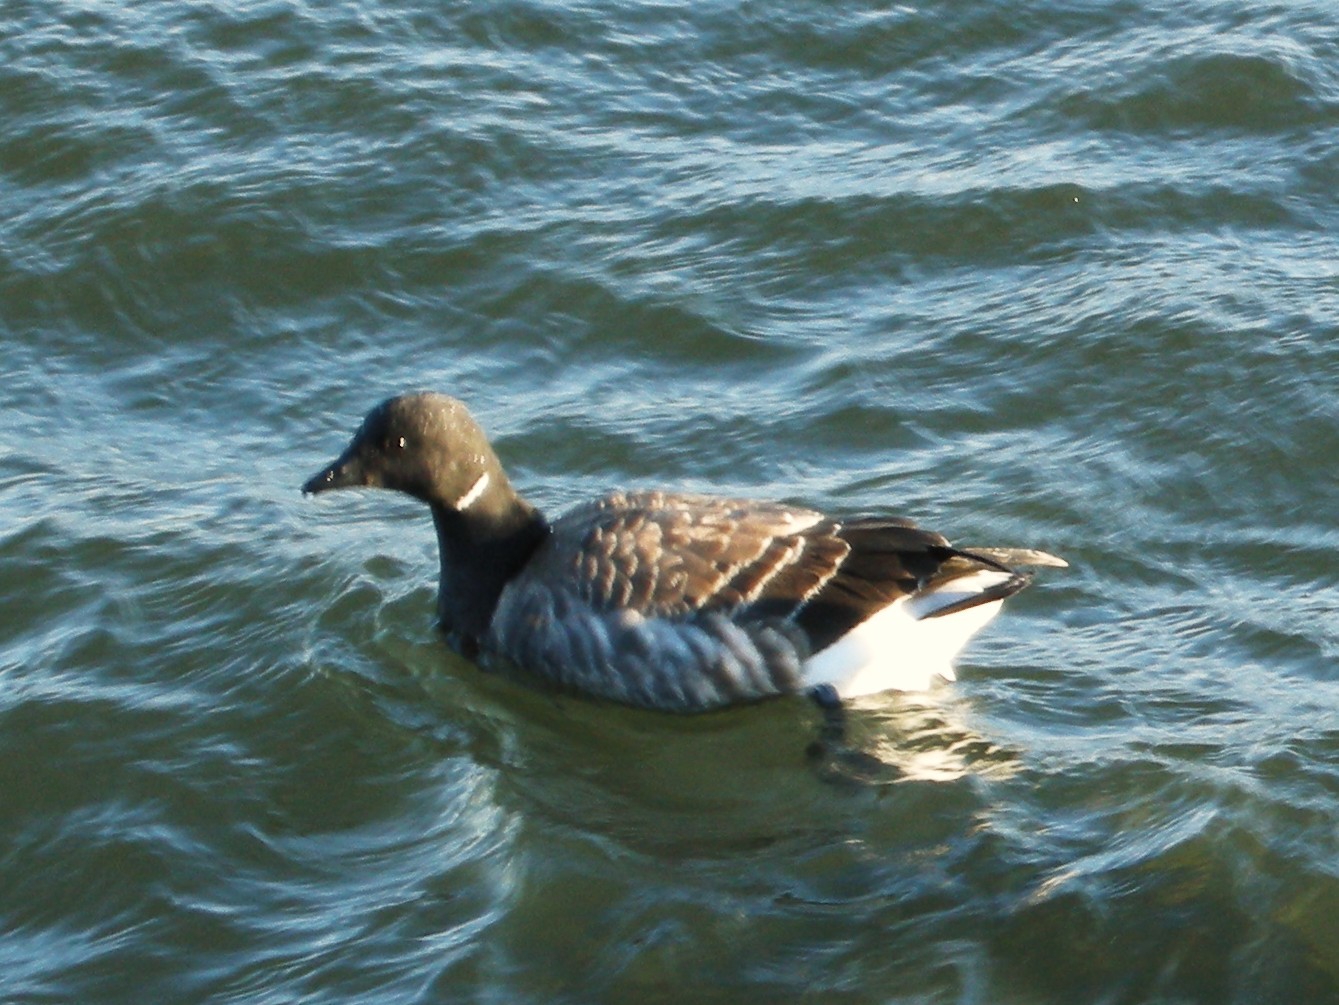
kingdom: Animalia
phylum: Chordata
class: Aves
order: Anseriformes
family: Anatidae
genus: Branta
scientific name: Branta bernicla
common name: Brant goose
